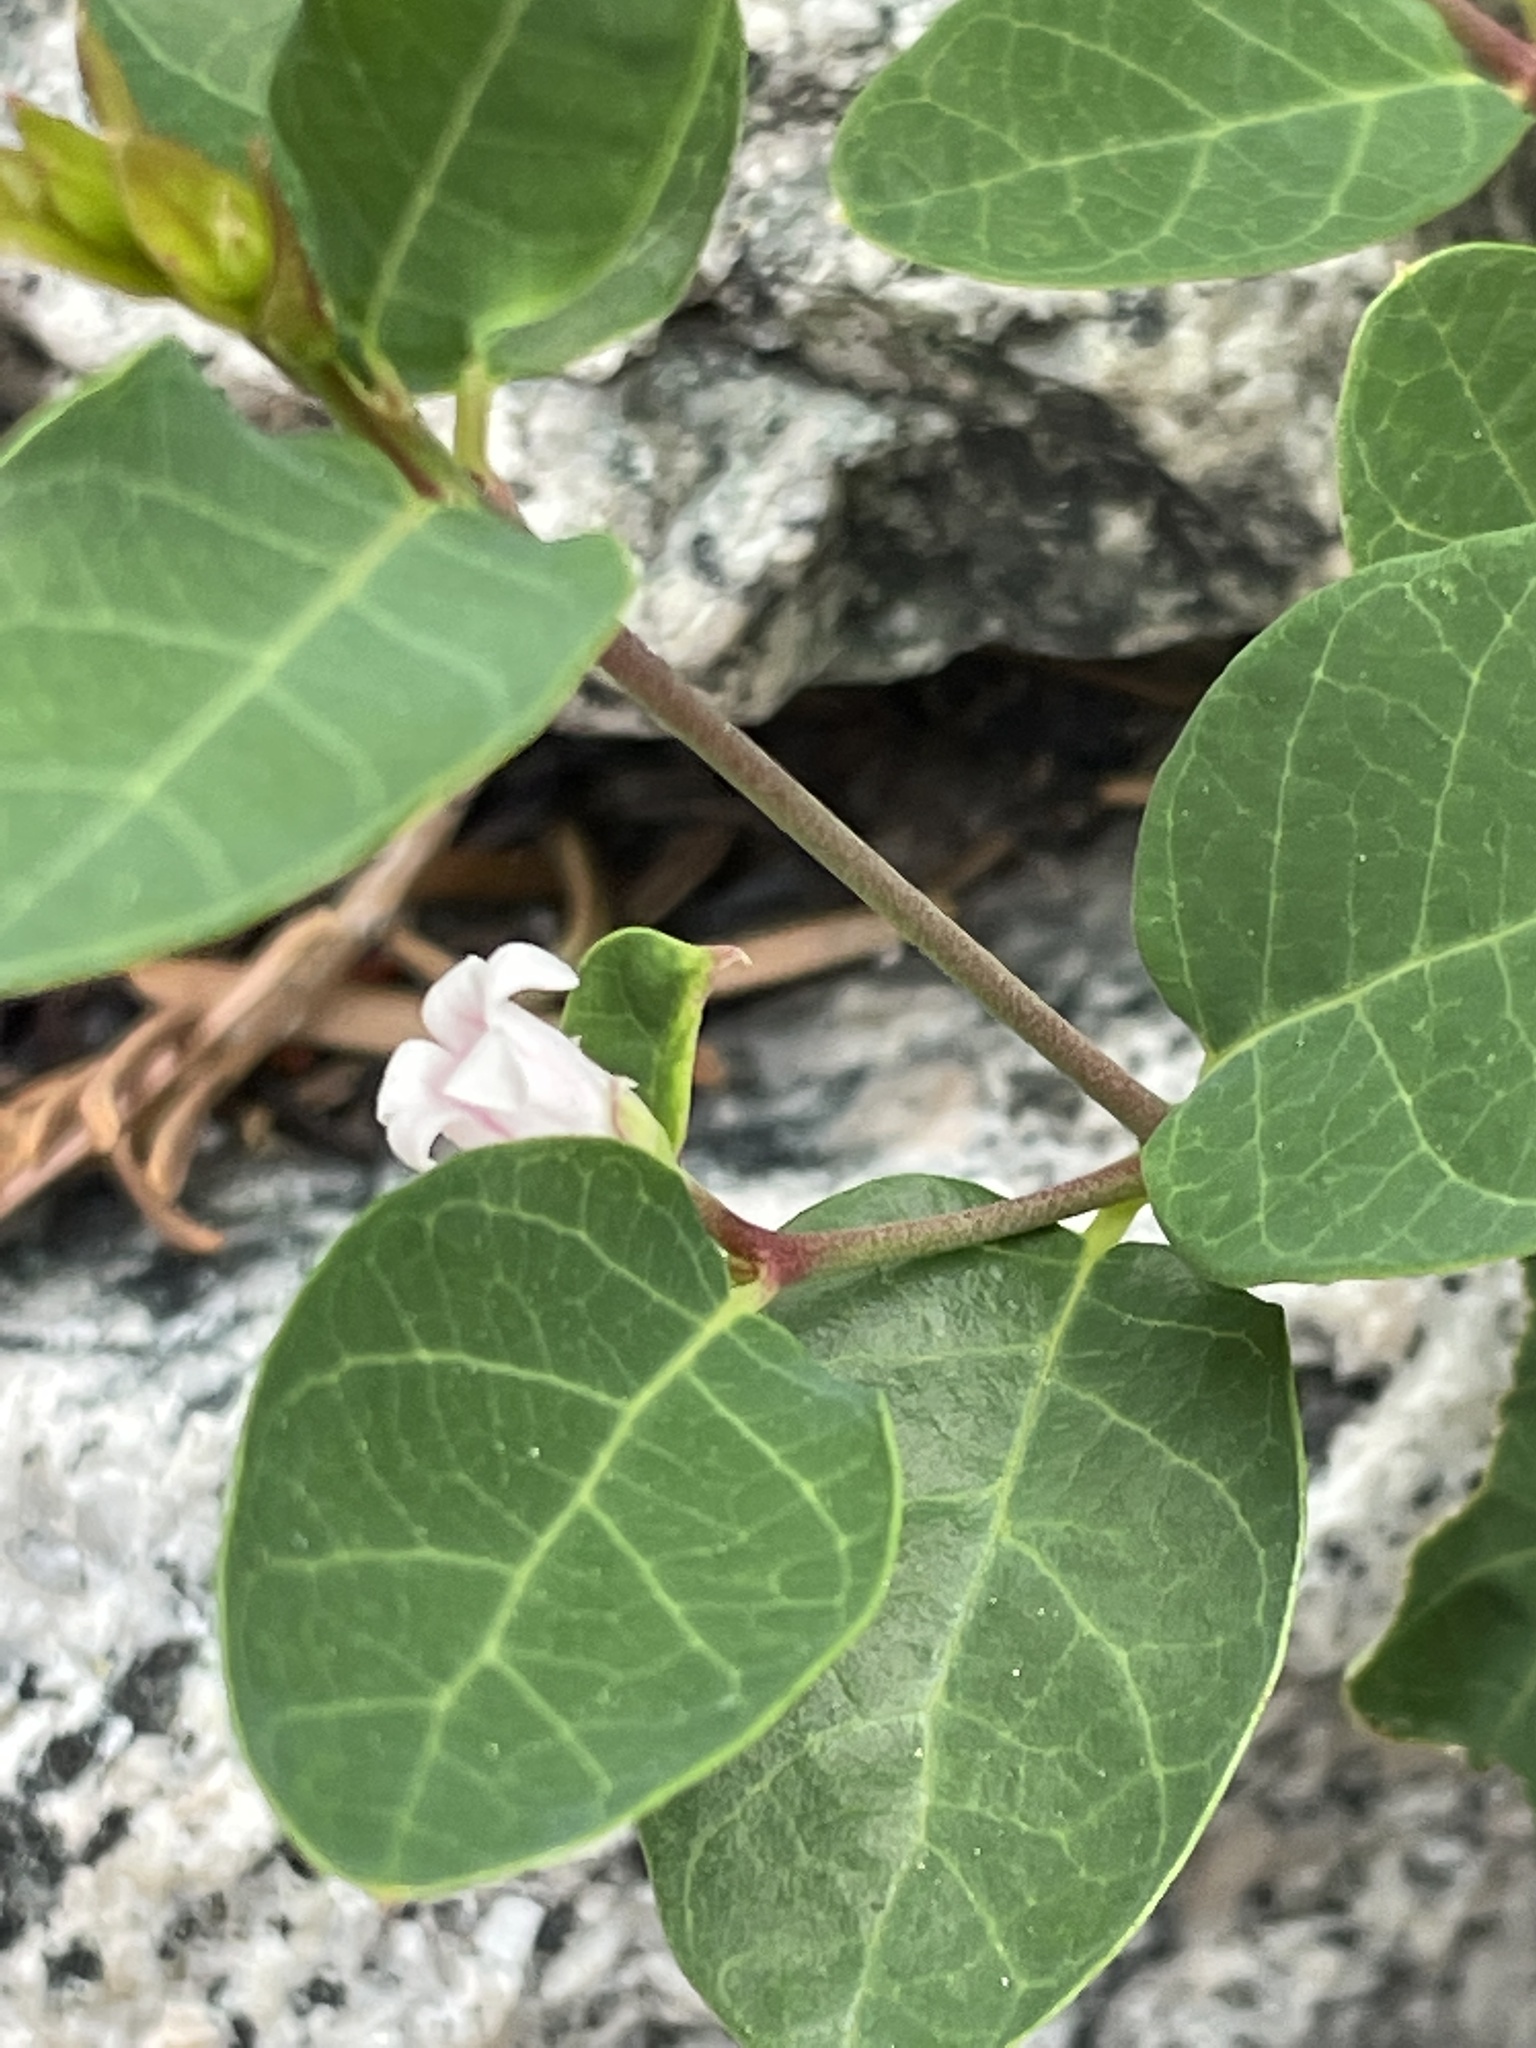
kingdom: Plantae
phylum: Tracheophyta
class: Magnoliopsida
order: Gentianales
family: Apocynaceae
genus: Apocynum
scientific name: Apocynum androsaemifolium
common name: Spreading dogbane
